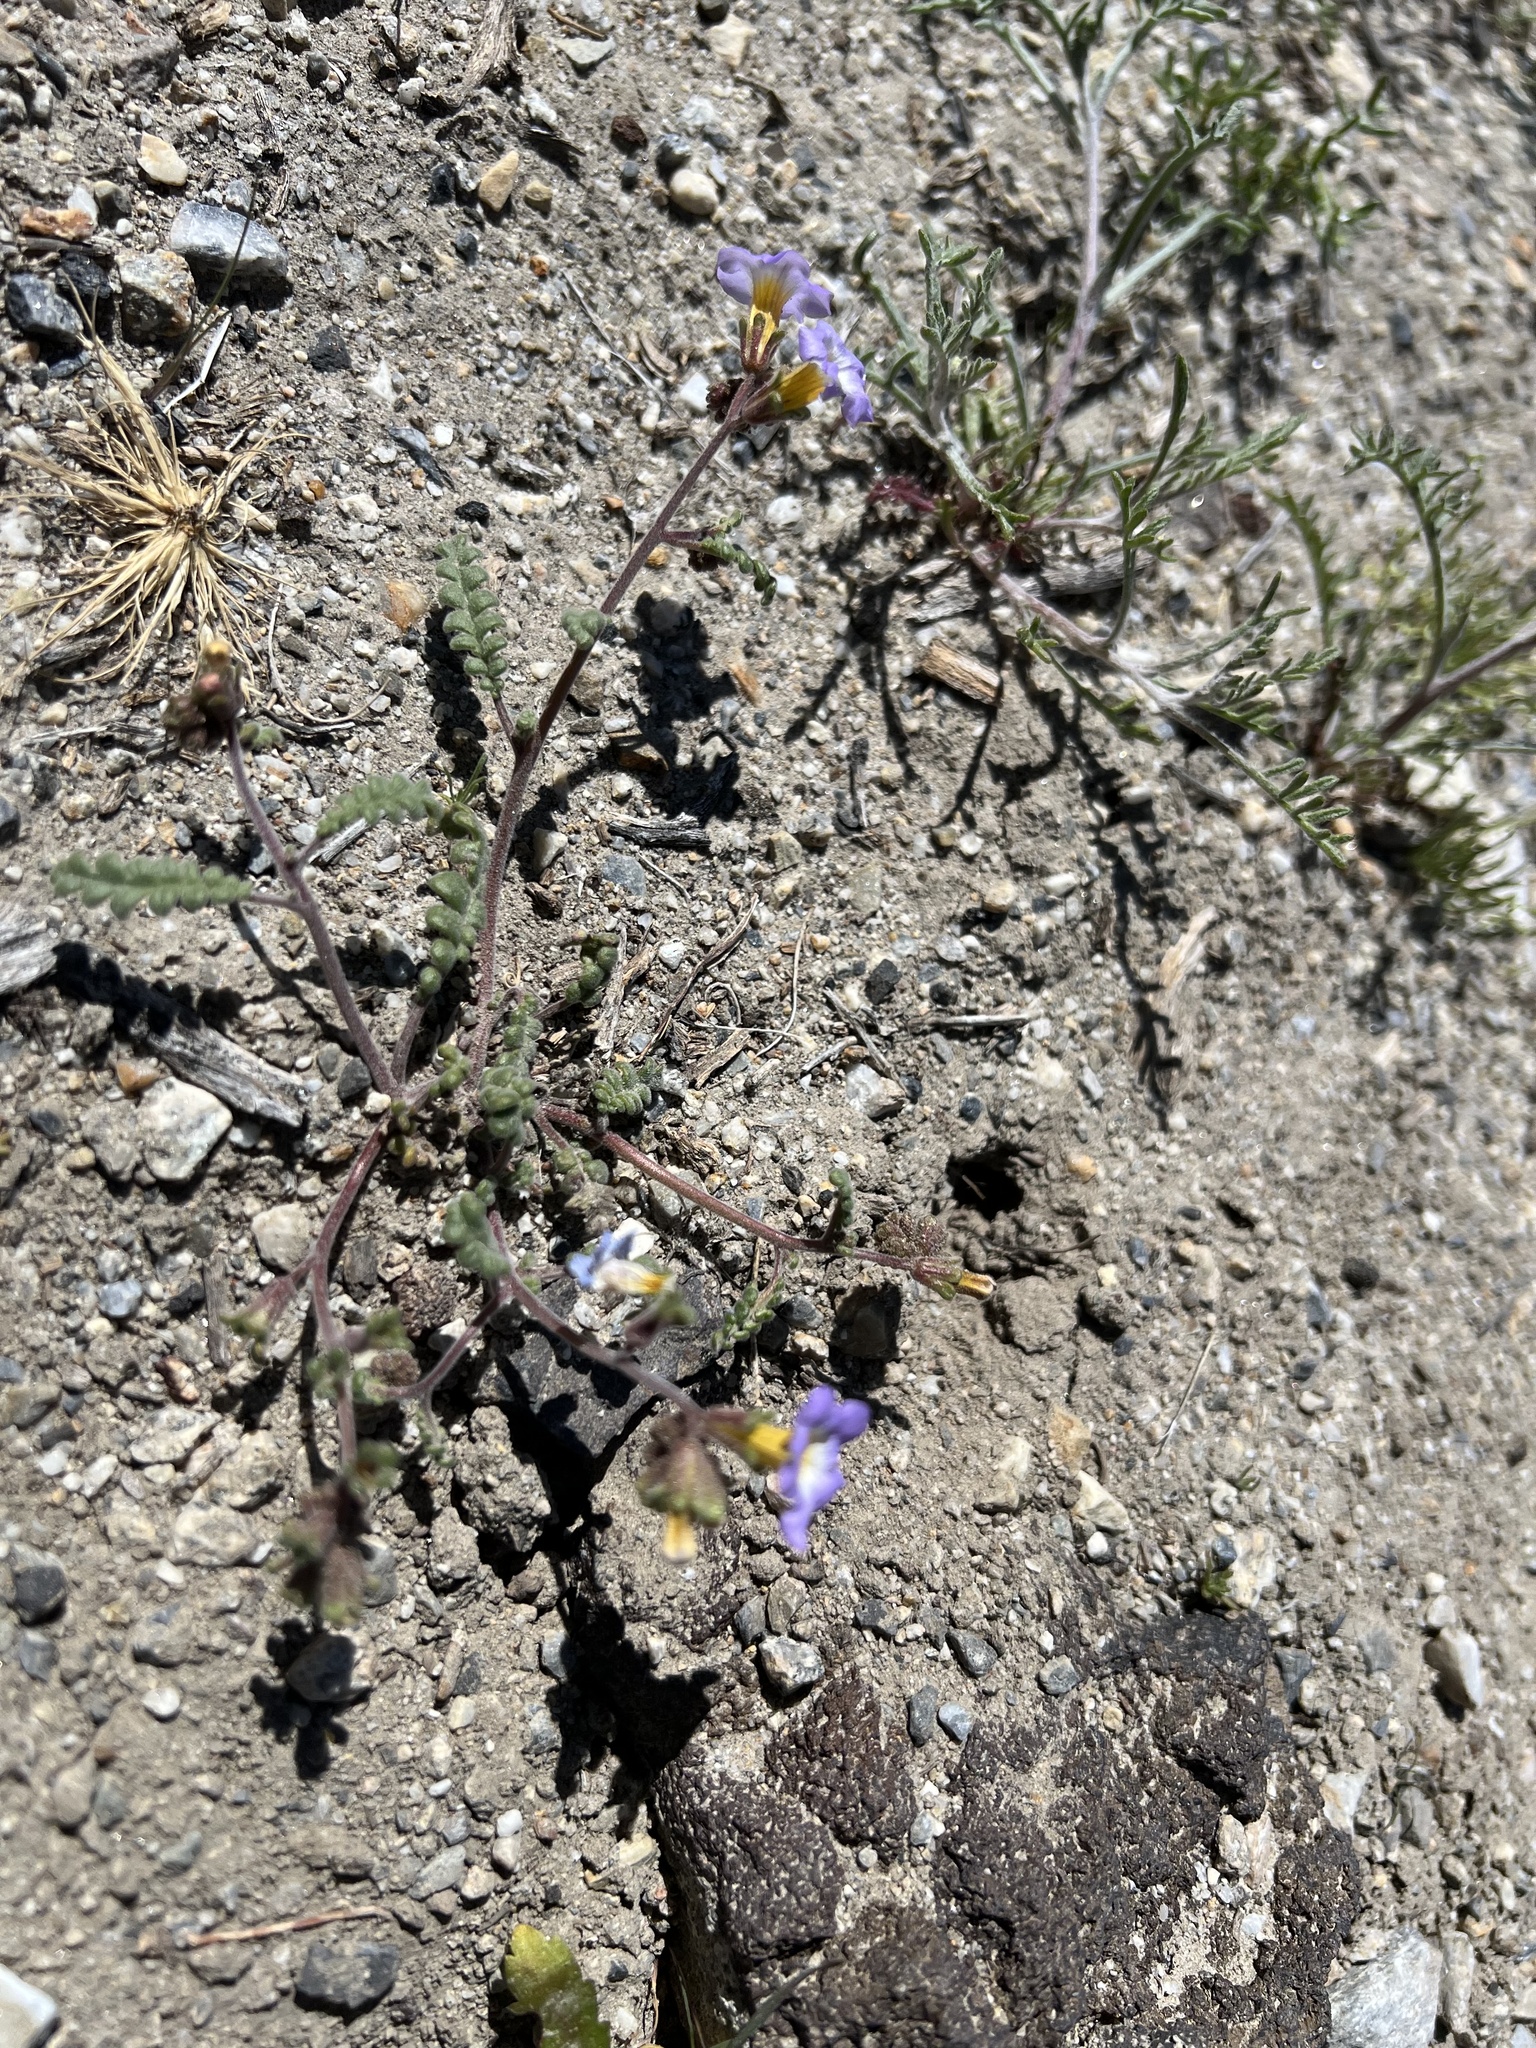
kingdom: Plantae
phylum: Tracheophyta
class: Magnoliopsida
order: Boraginales
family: Hydrophyllaceae
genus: Phacelia
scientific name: Phacelia fremontii
